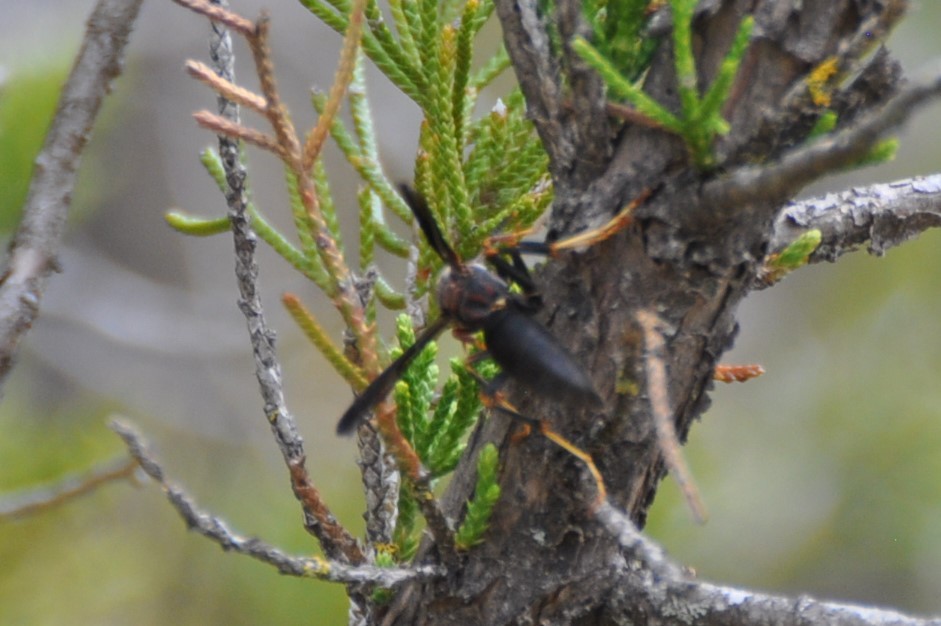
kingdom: Animalia
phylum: Arthropoda
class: Insecta
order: Hymenoptera
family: Eumenidae
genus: Polistes
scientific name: Polistes metricus
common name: Metric paper wasp
